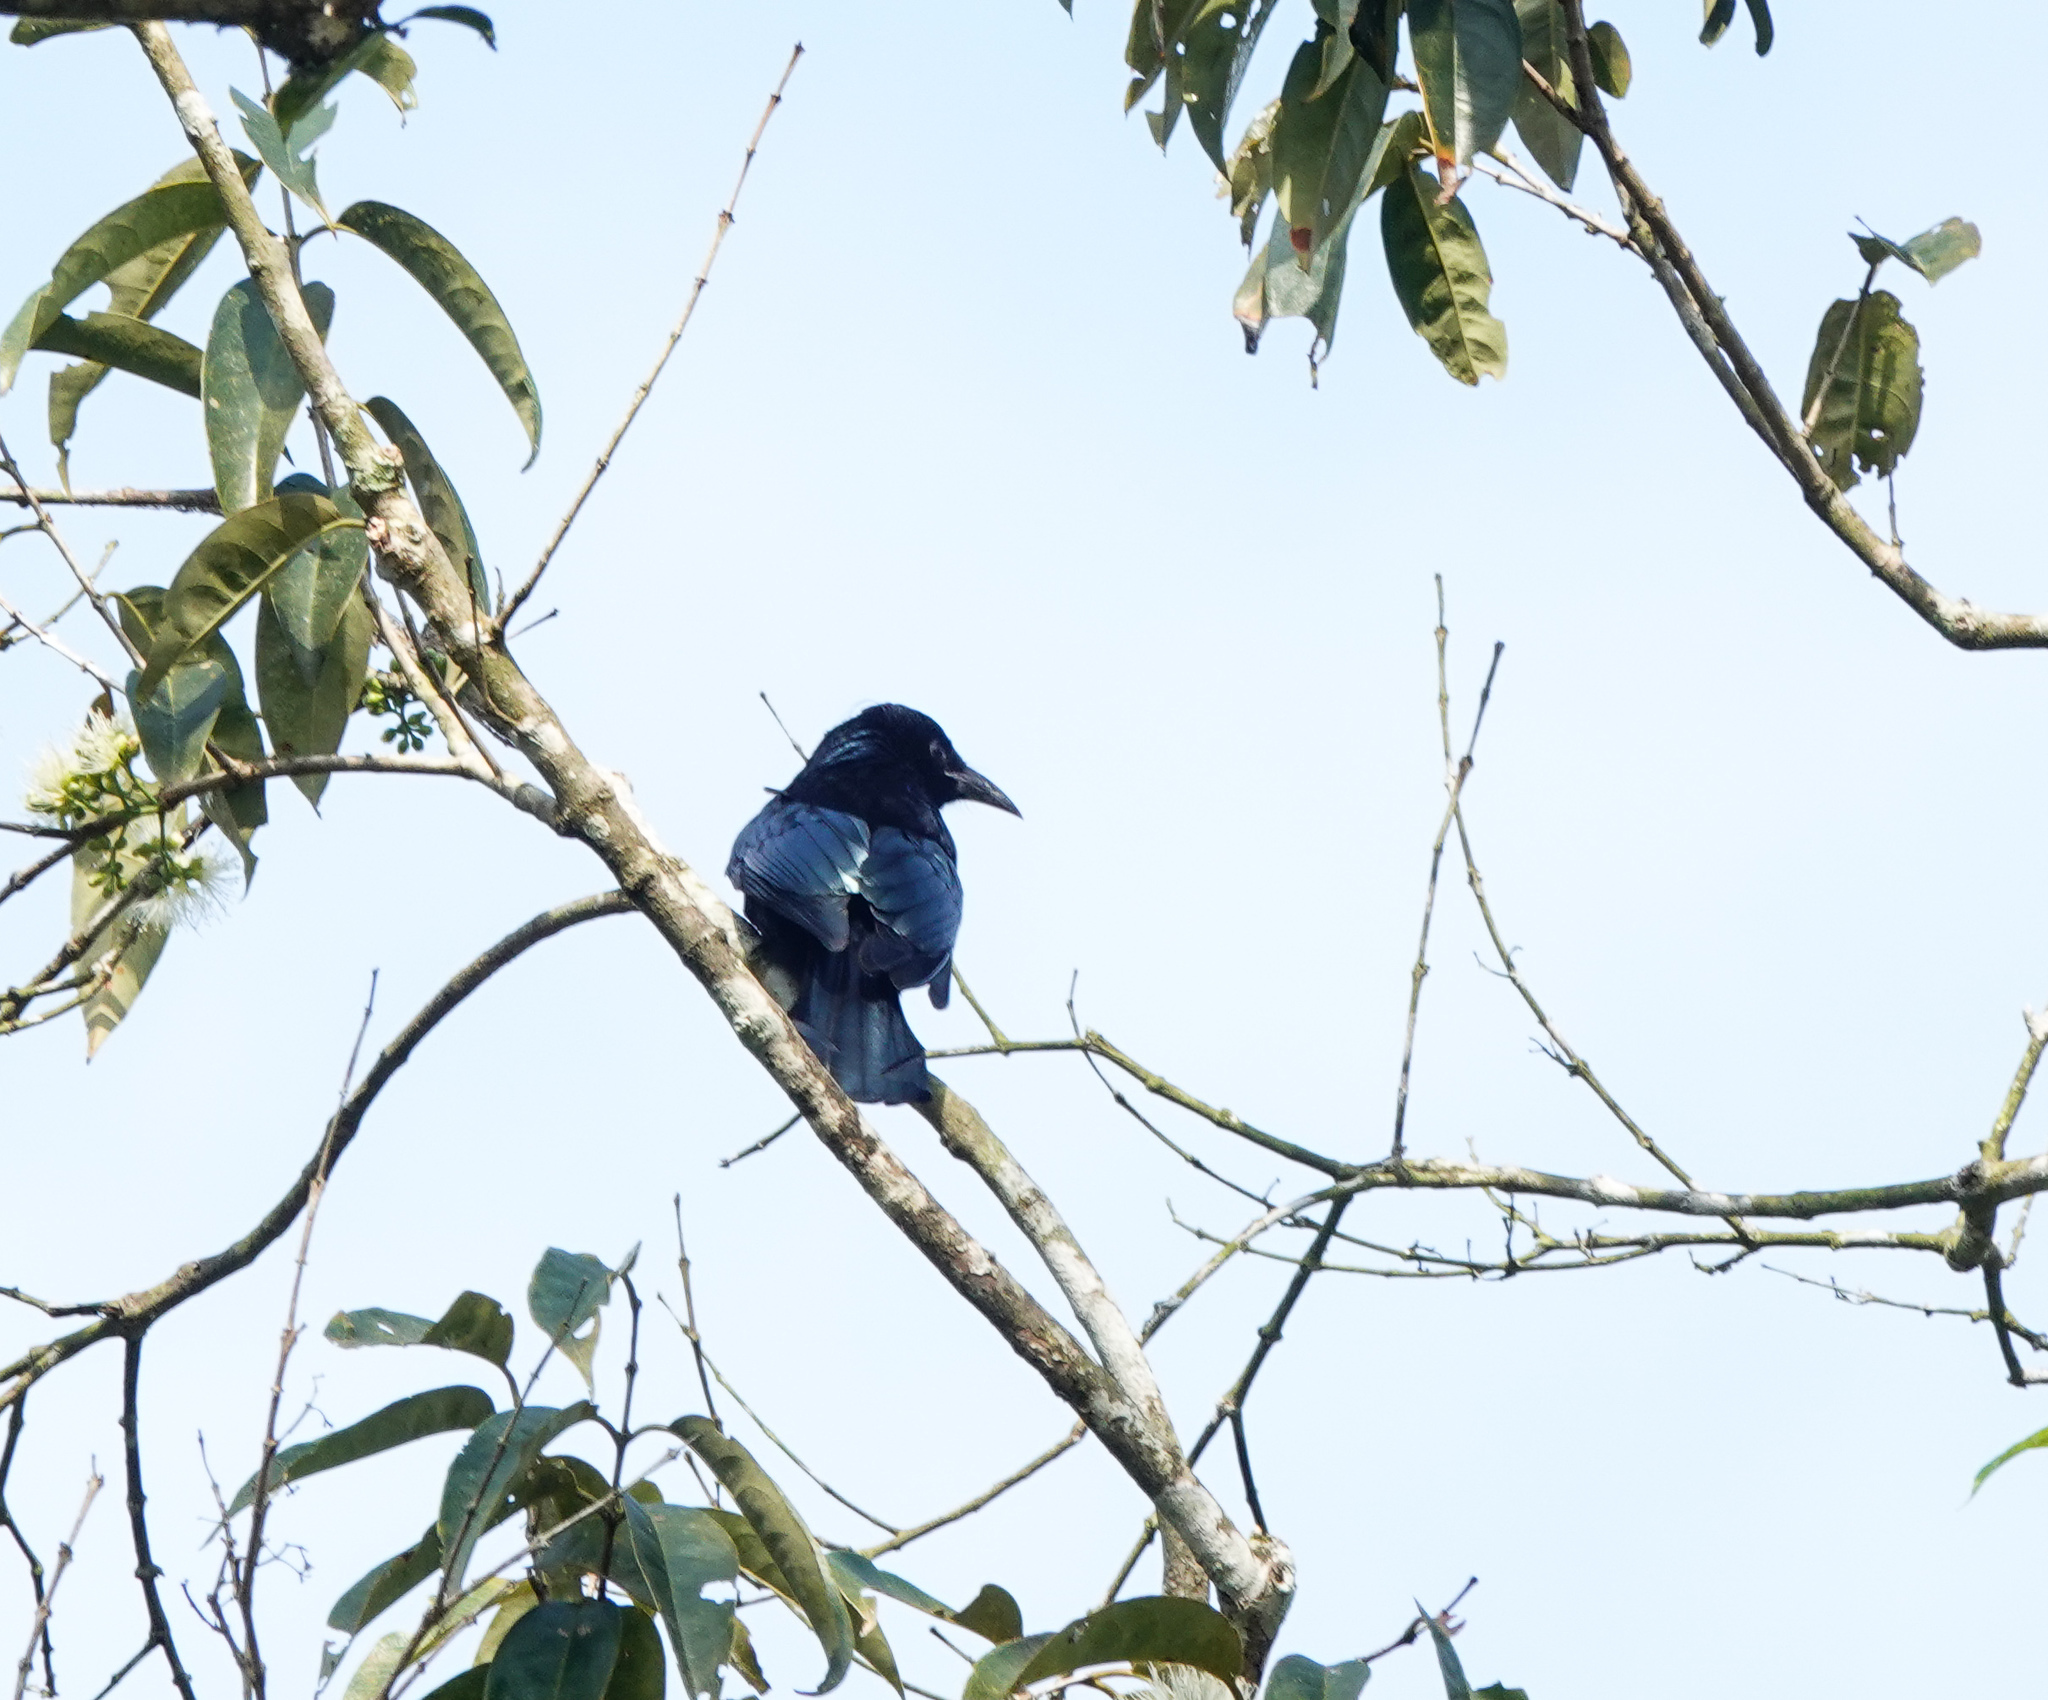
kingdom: Animalia
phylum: Chordata
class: Aves
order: Passeriformes
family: Dicruridae
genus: Dicrurus
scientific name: Dicrurus hottentottus
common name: Hair-crested drongo
